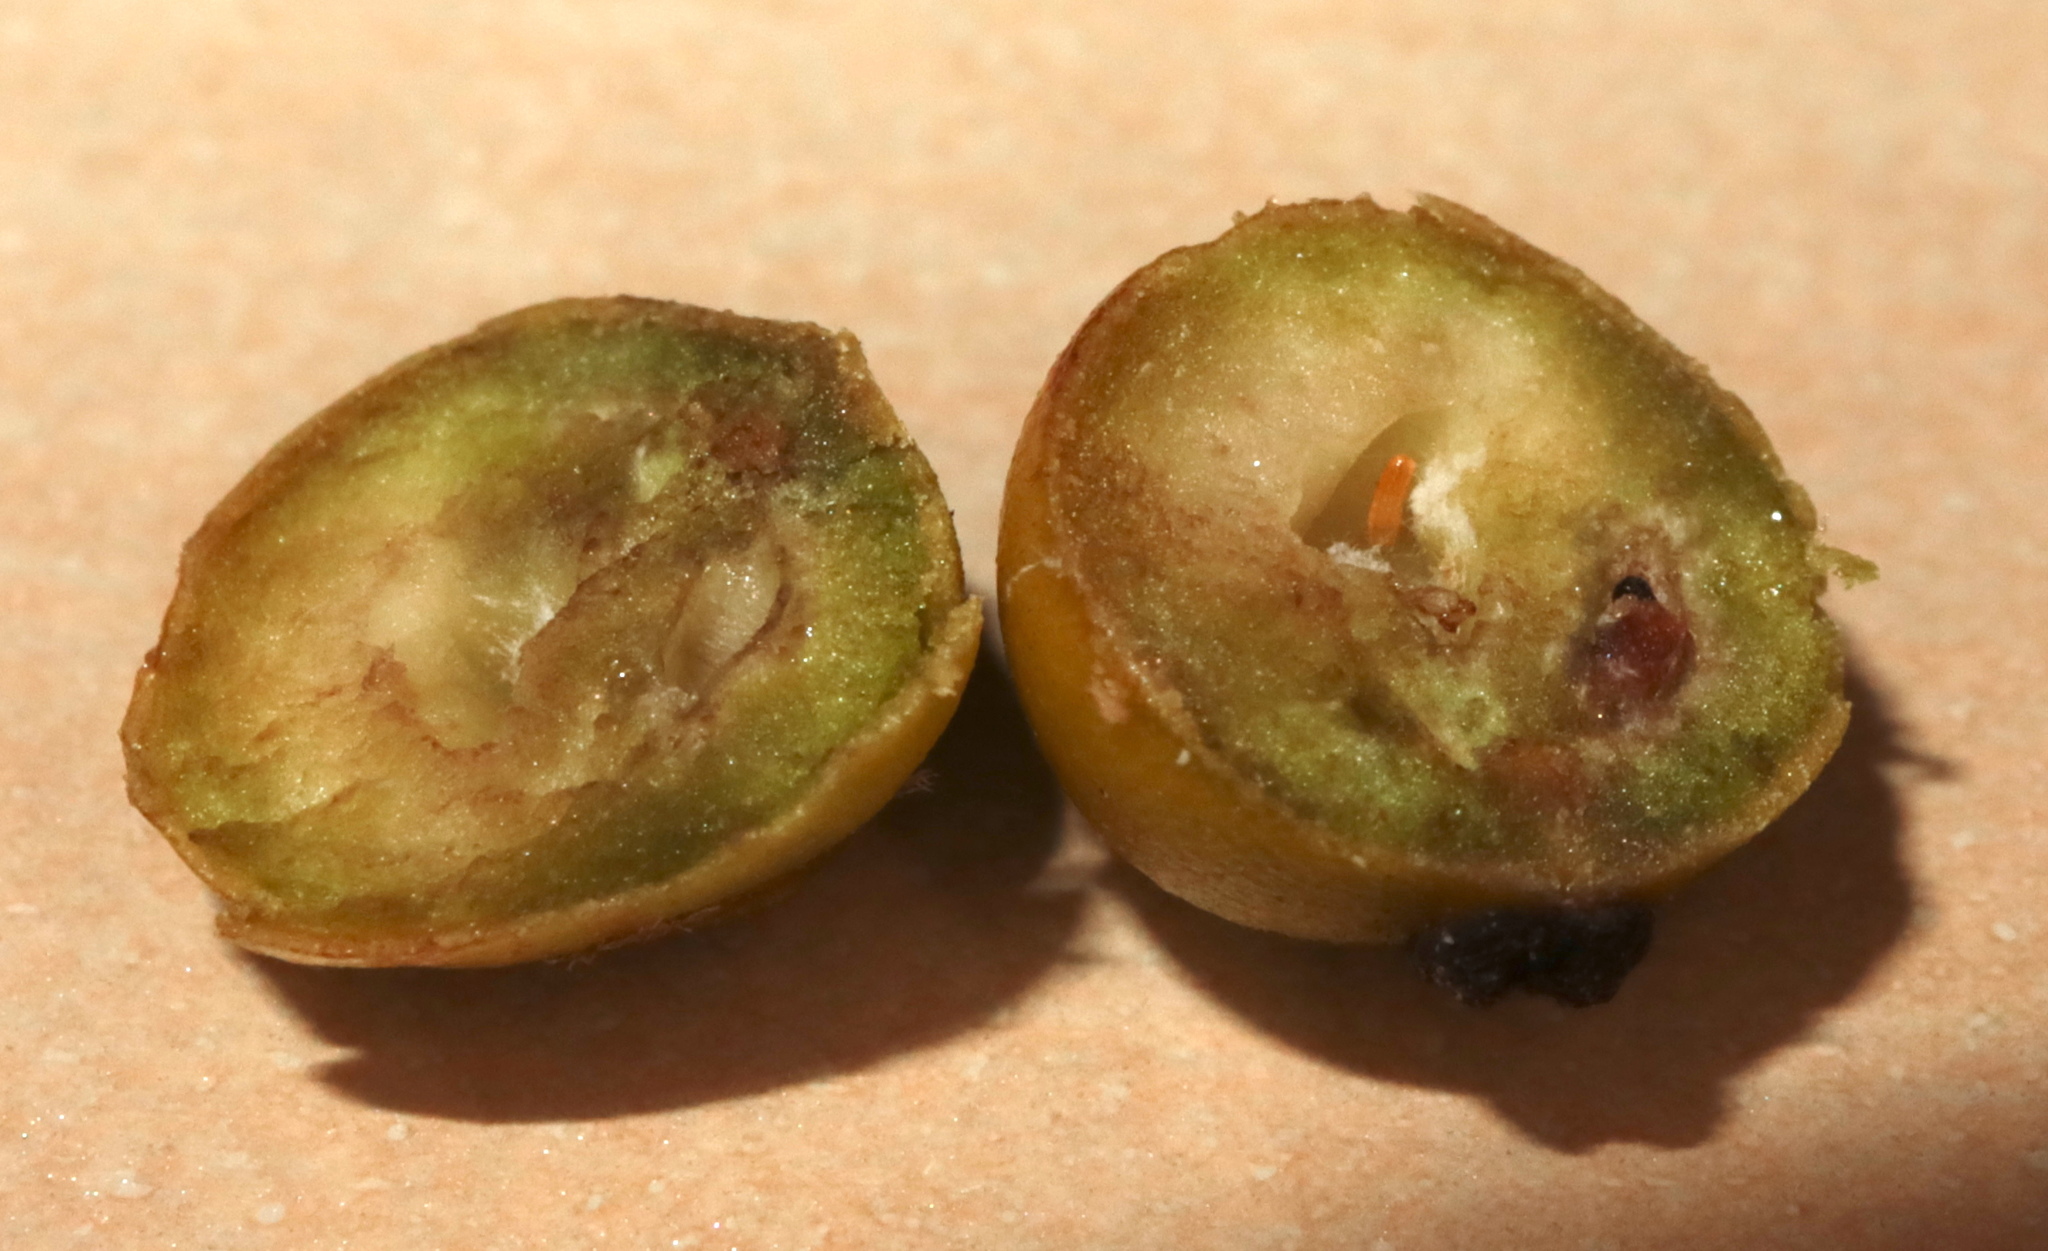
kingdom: Animalia
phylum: Arthropoda
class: Insecta
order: Diptera
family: Cecidomyiidae
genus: Asphondylia
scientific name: Asphondylia ilicicola
